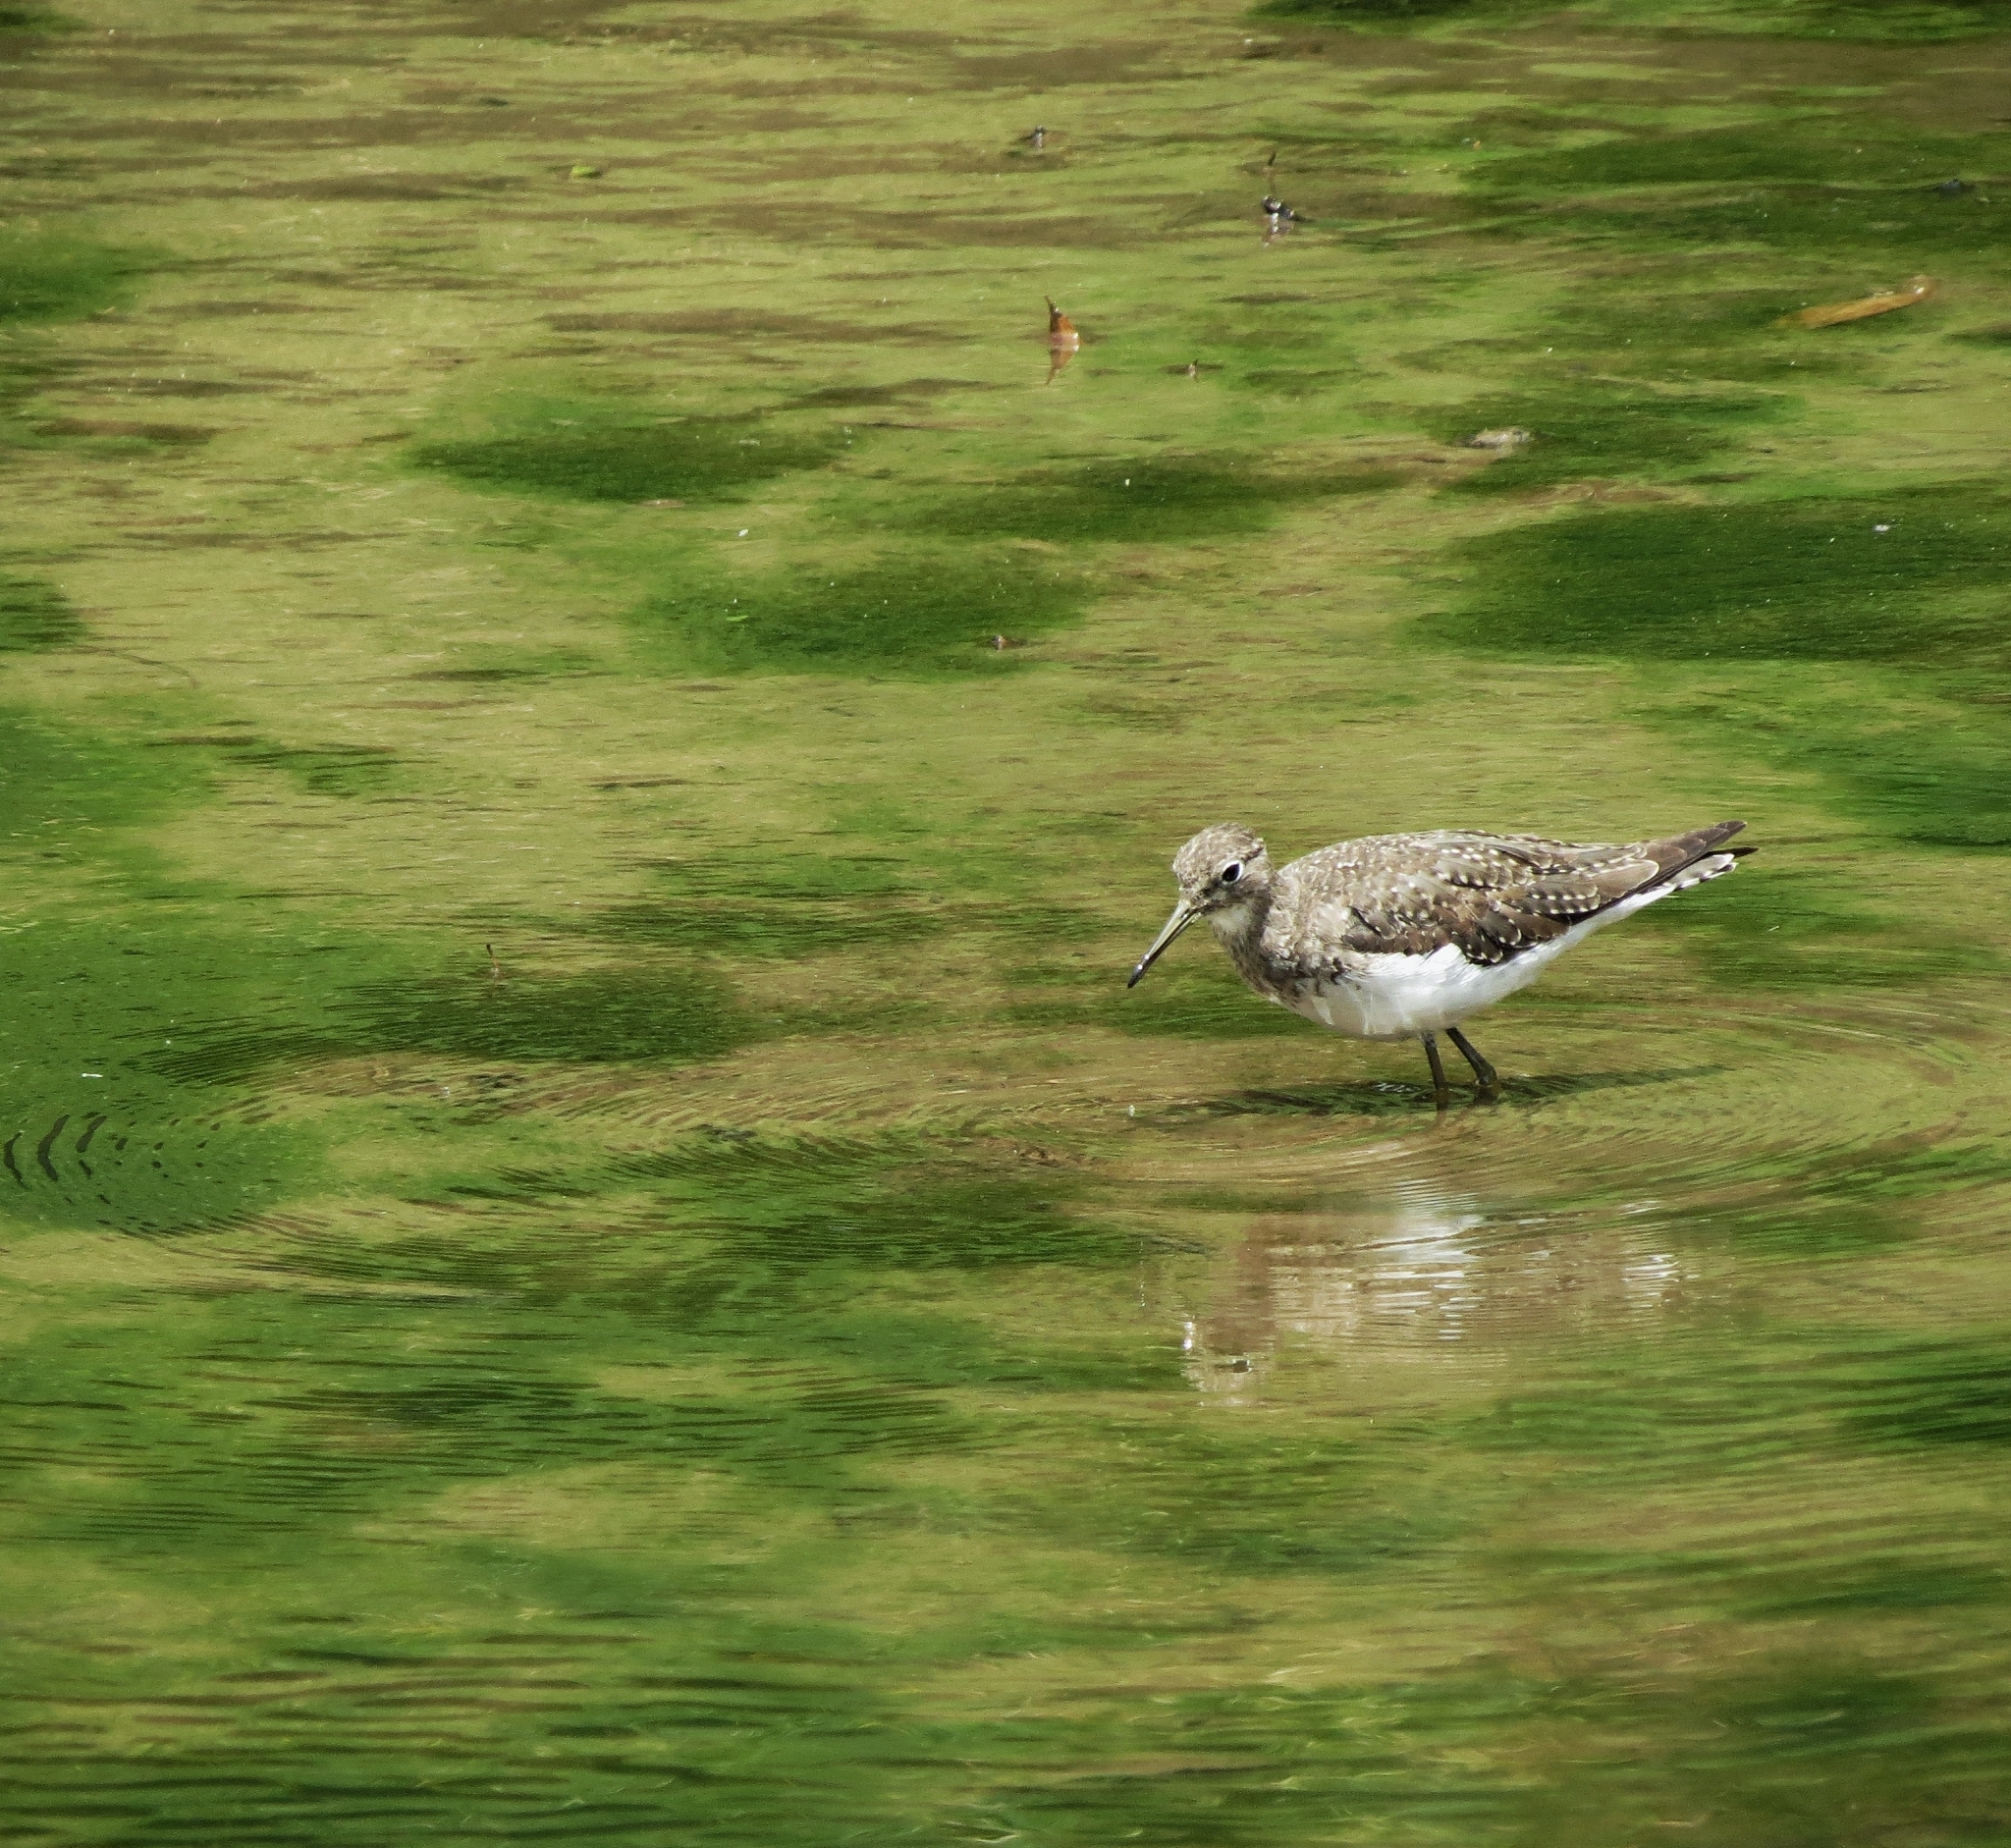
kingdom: Animalia
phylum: Chordata
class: Aves
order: Charadriiformes
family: Scolopacidae
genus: Tringa
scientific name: Tringa solitaria
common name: Solitary sandpiper
